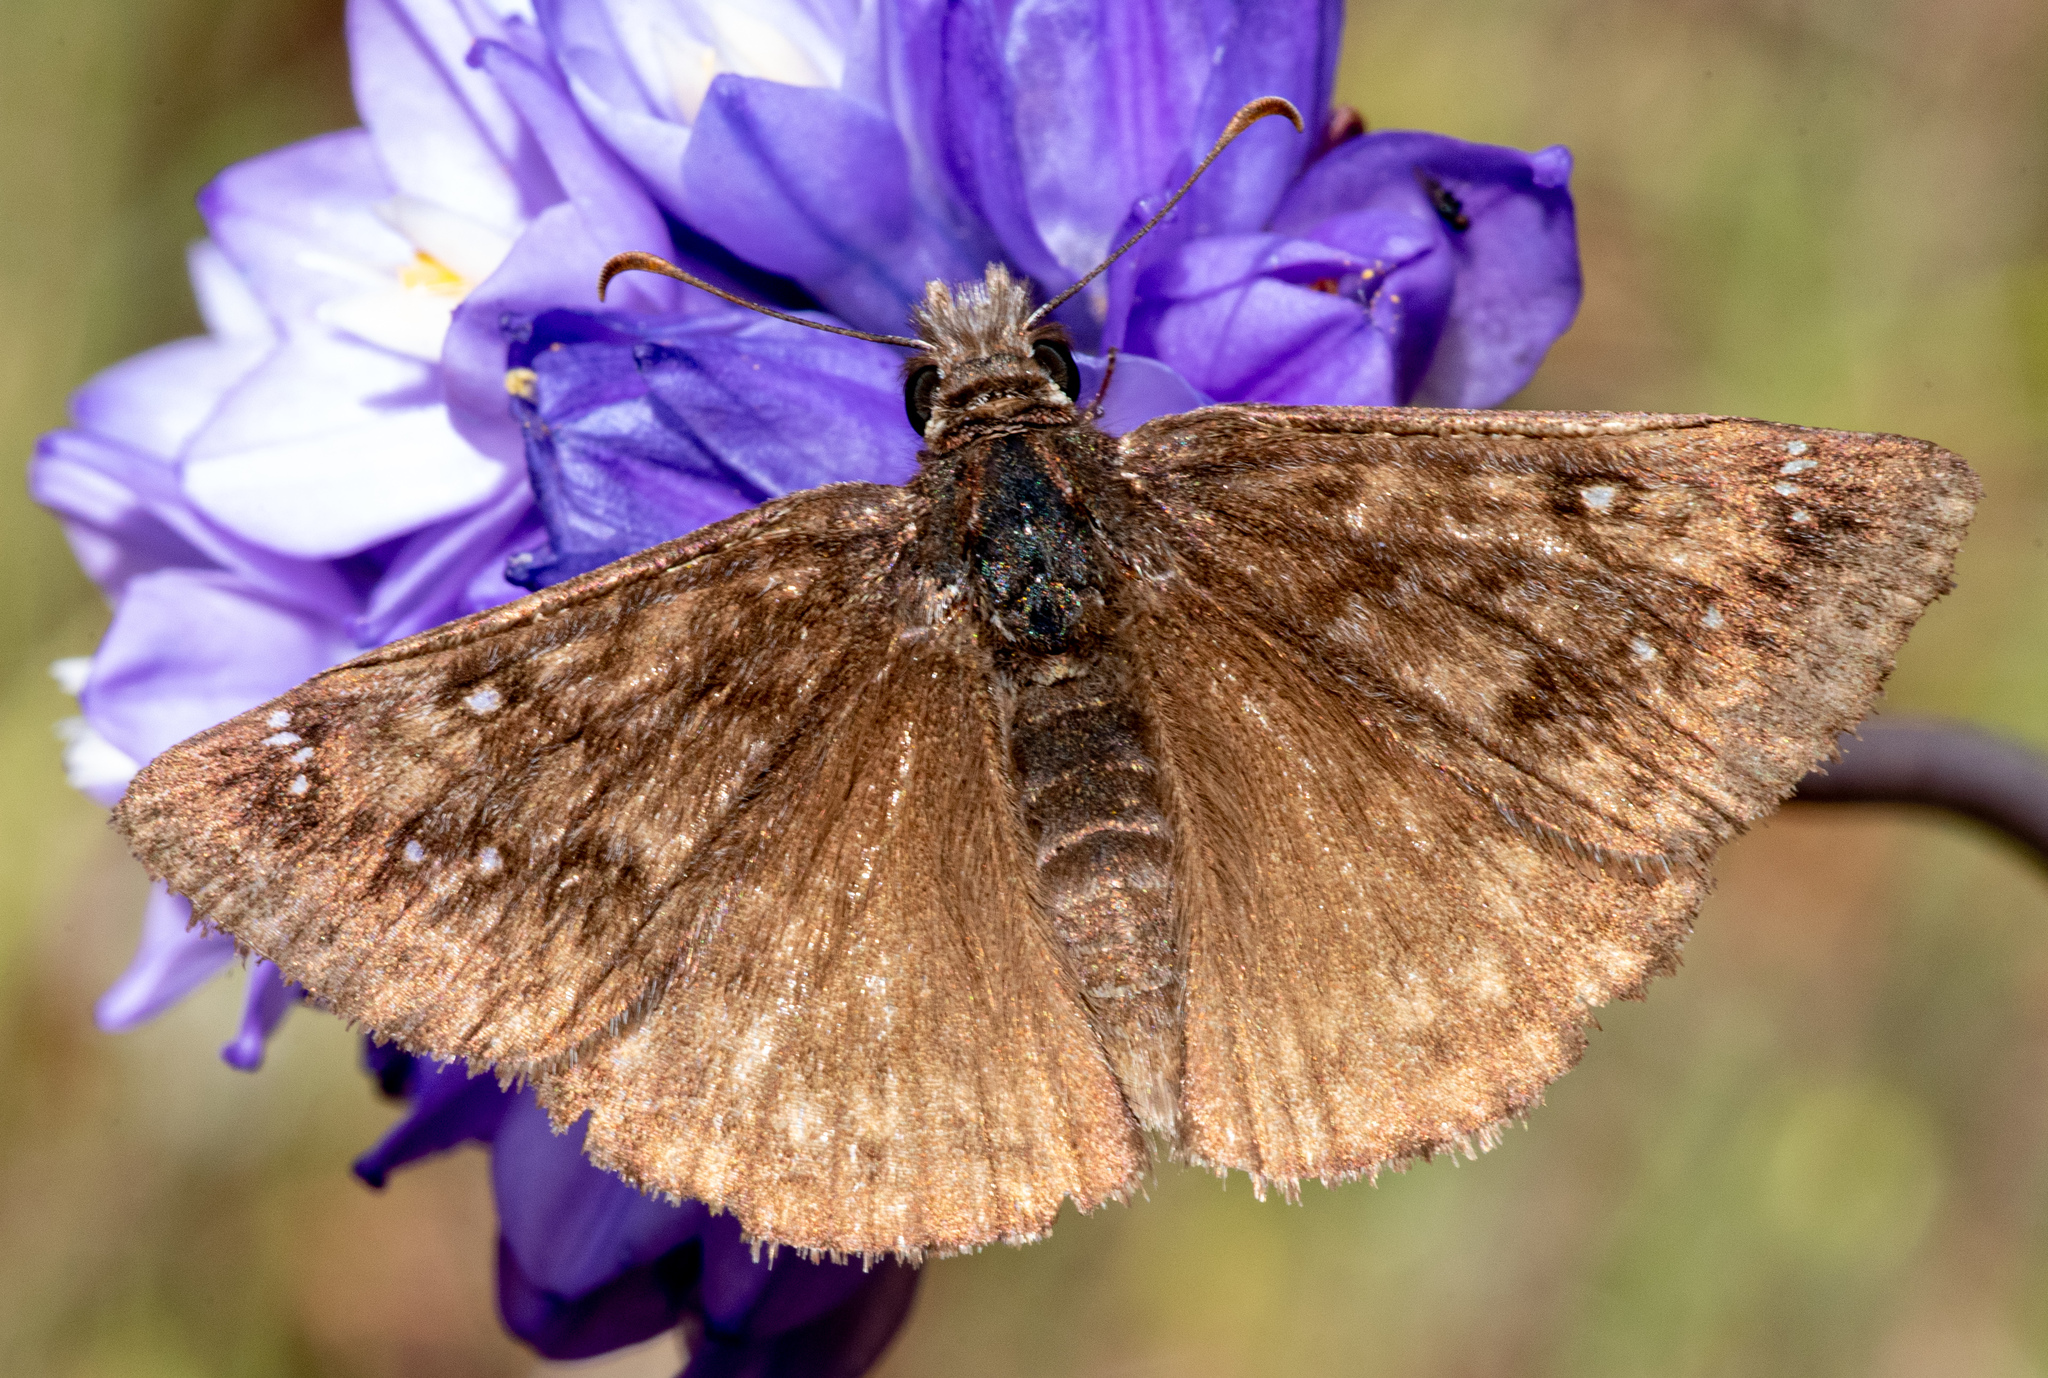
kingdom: Animalia
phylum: Arthropoda
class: Insecta
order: Lepidoptera
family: Hesperiidae
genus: Erynnis
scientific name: Erynnis propertius
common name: Propertius duskywing
